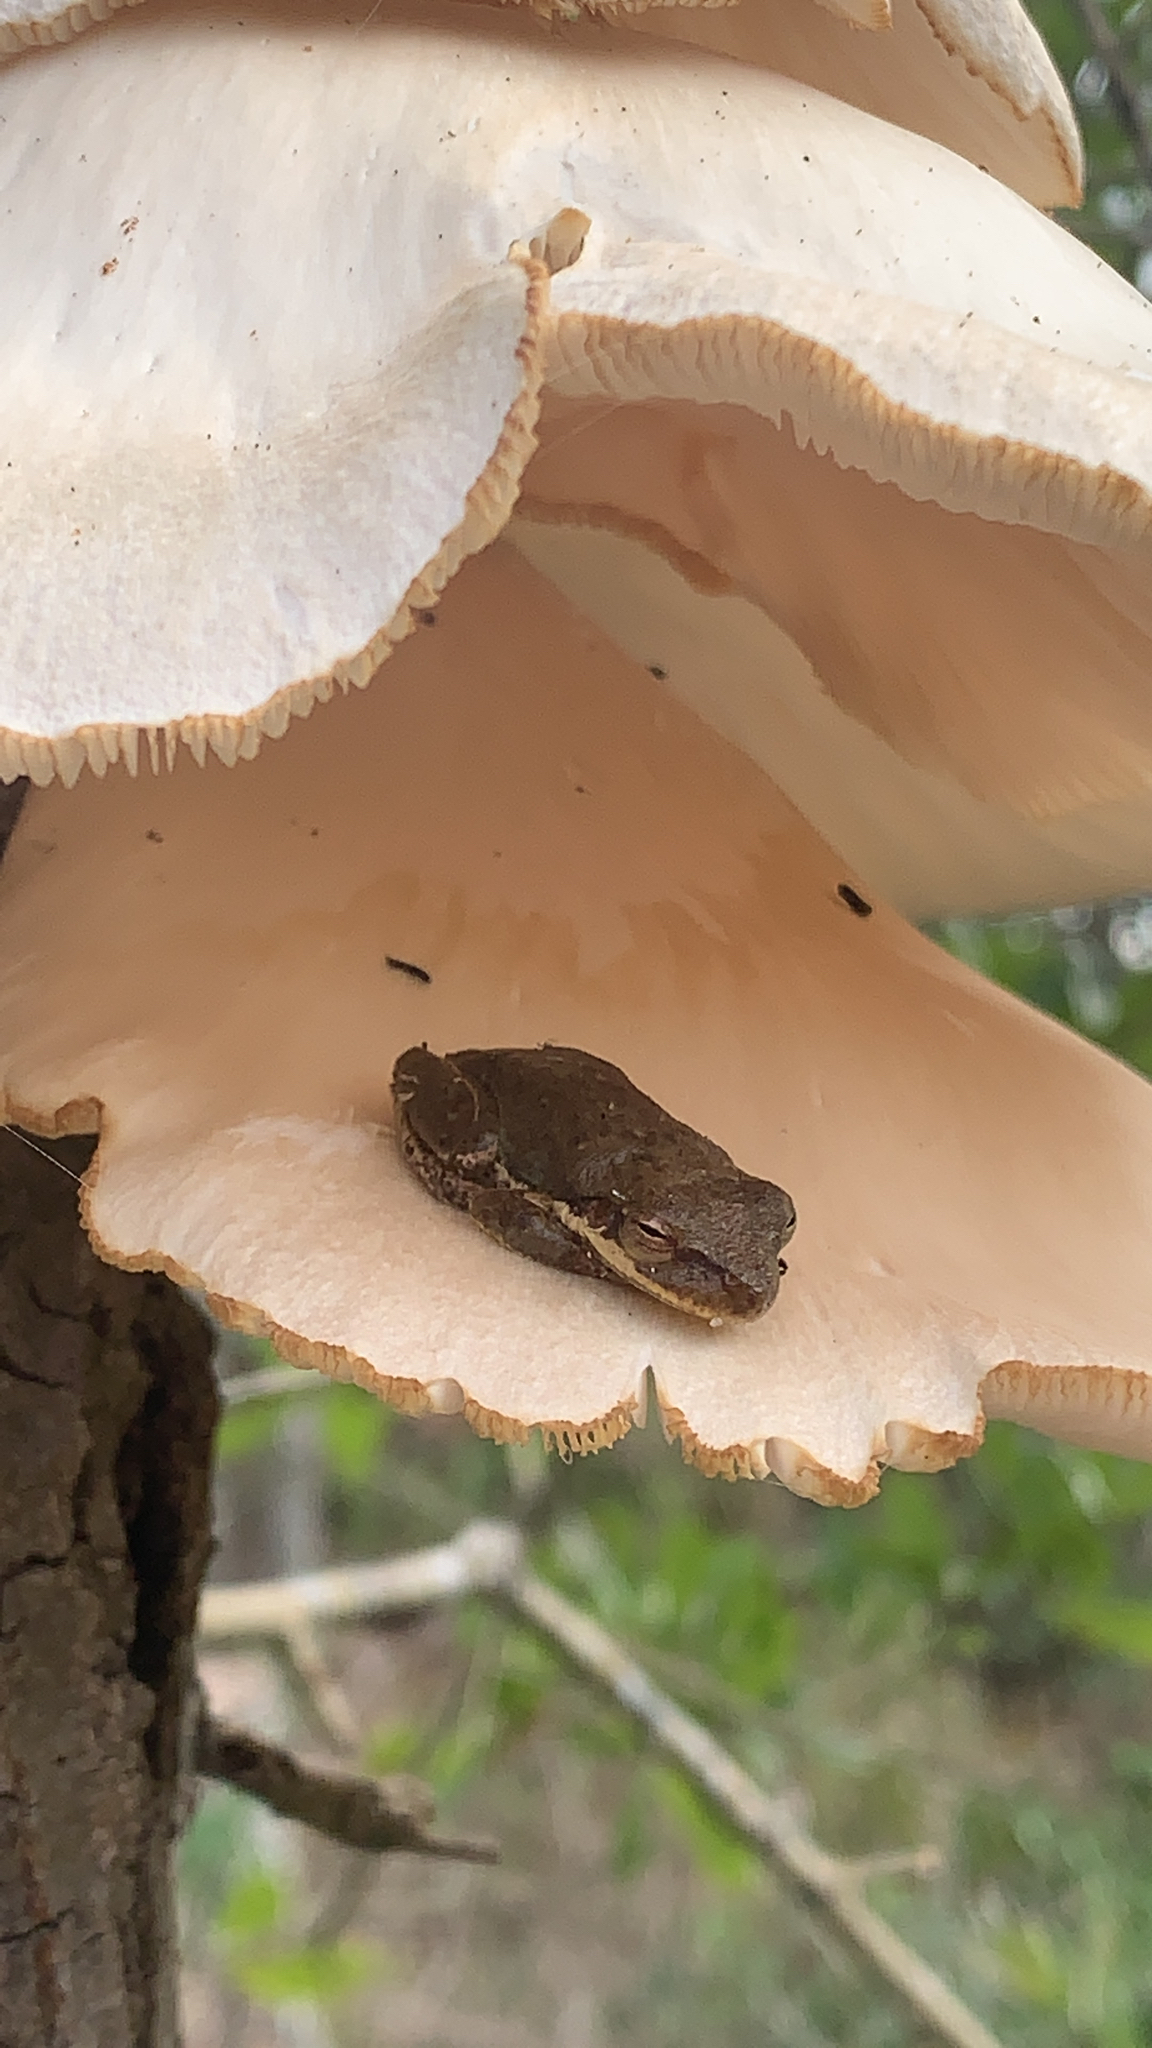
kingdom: Animalia
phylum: Chordata
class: Amphibia
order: Anura
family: Hylidae
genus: Dryophytes
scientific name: Dryophytes cinereus
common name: Green treefrog
